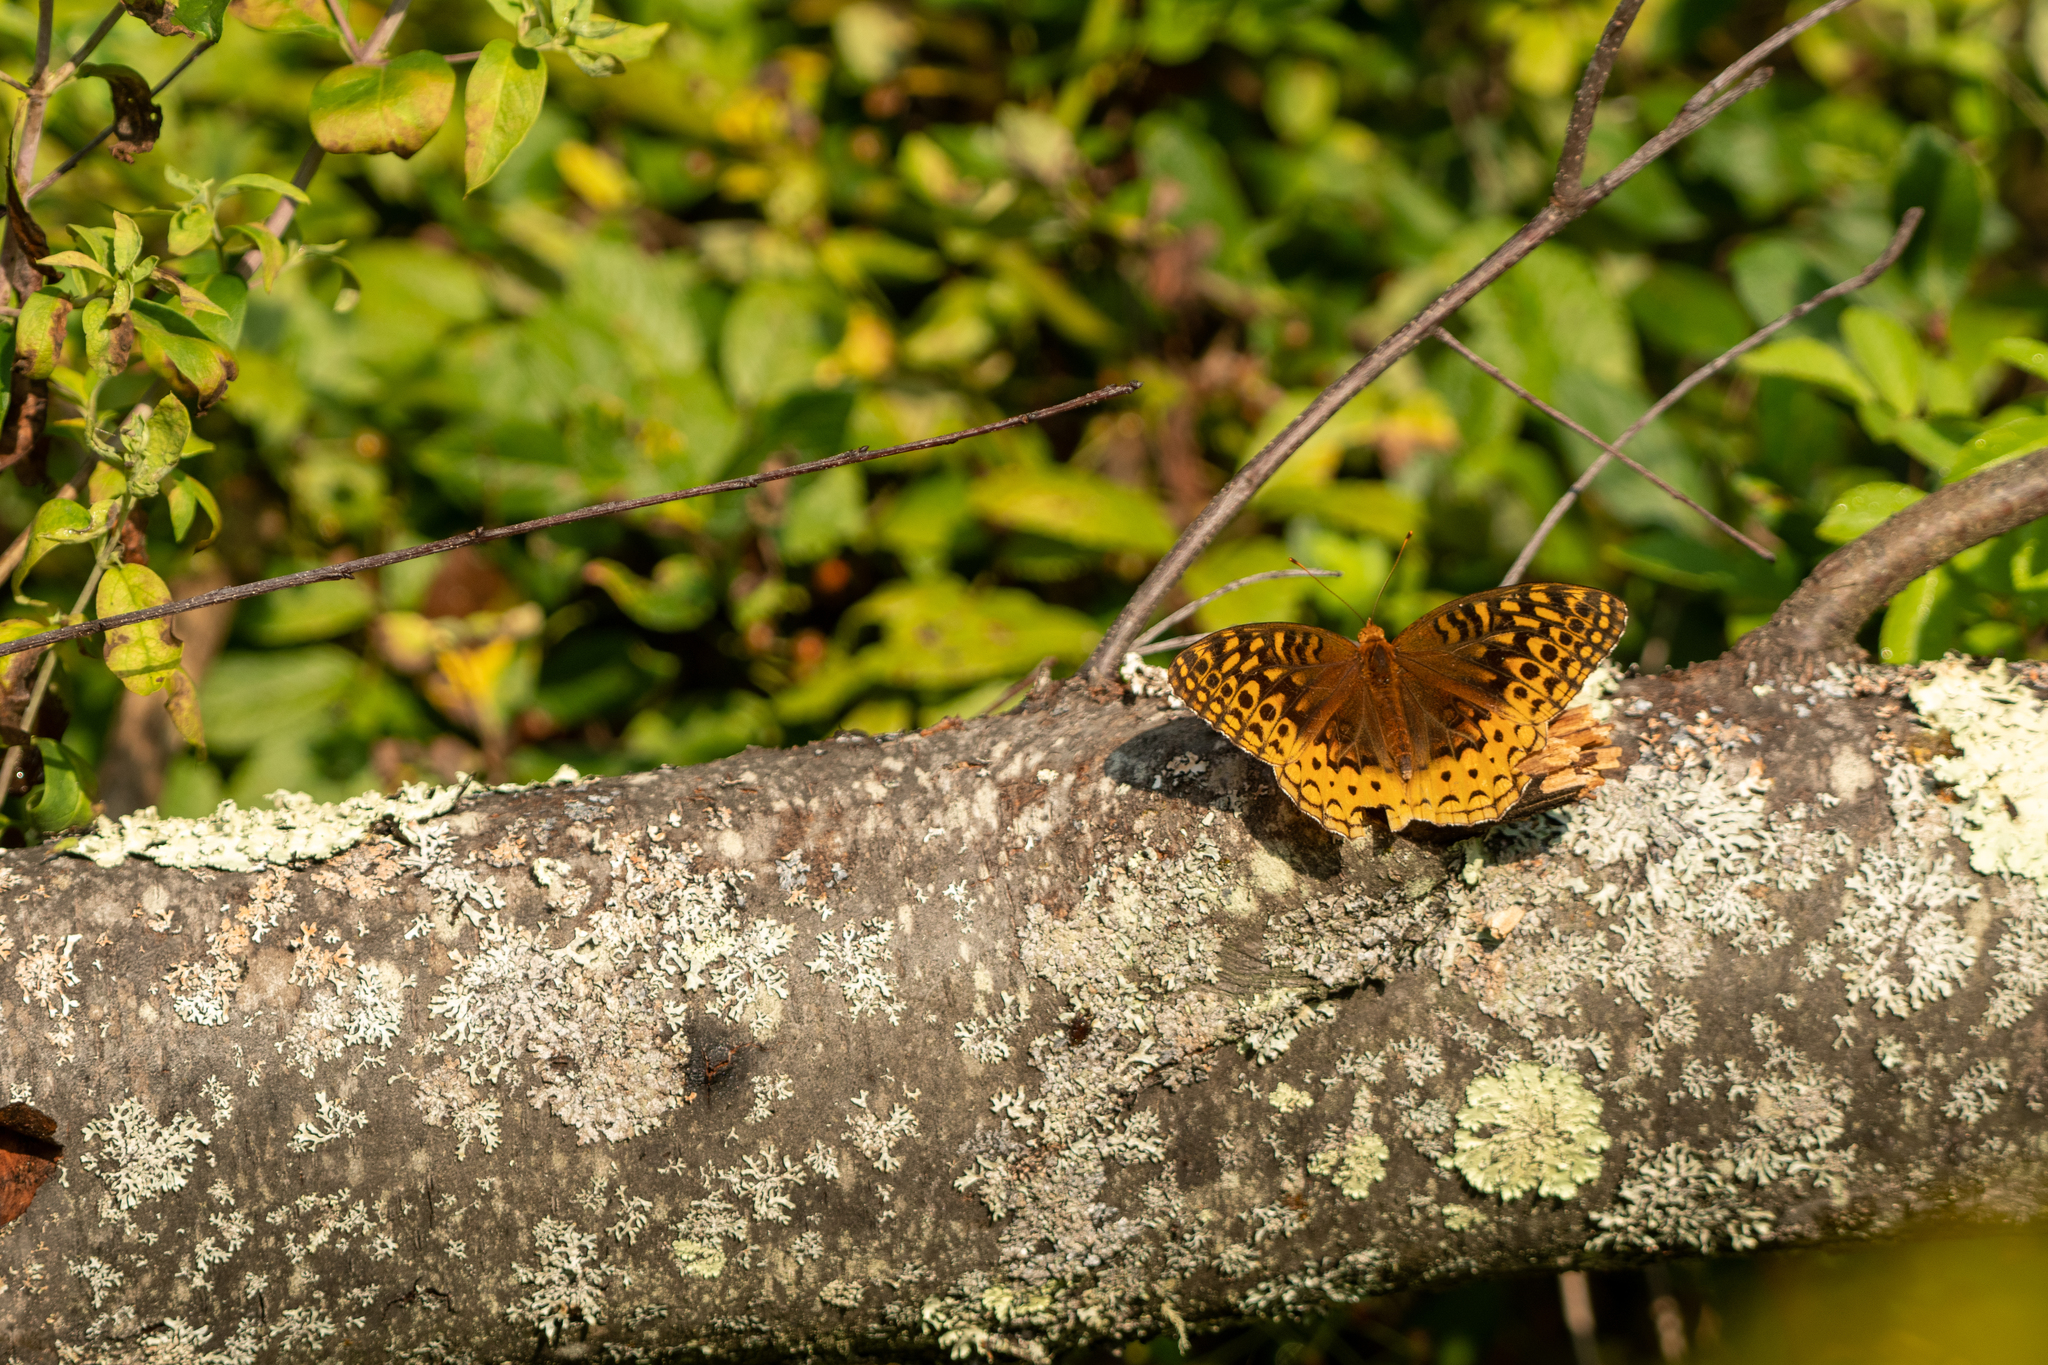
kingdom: Animalia
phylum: Arthropoda
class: Insecta
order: Lepidoptera
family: Nymphalidae
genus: Speyeria
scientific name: Speyeria cybele
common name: Great spangled fritillary
